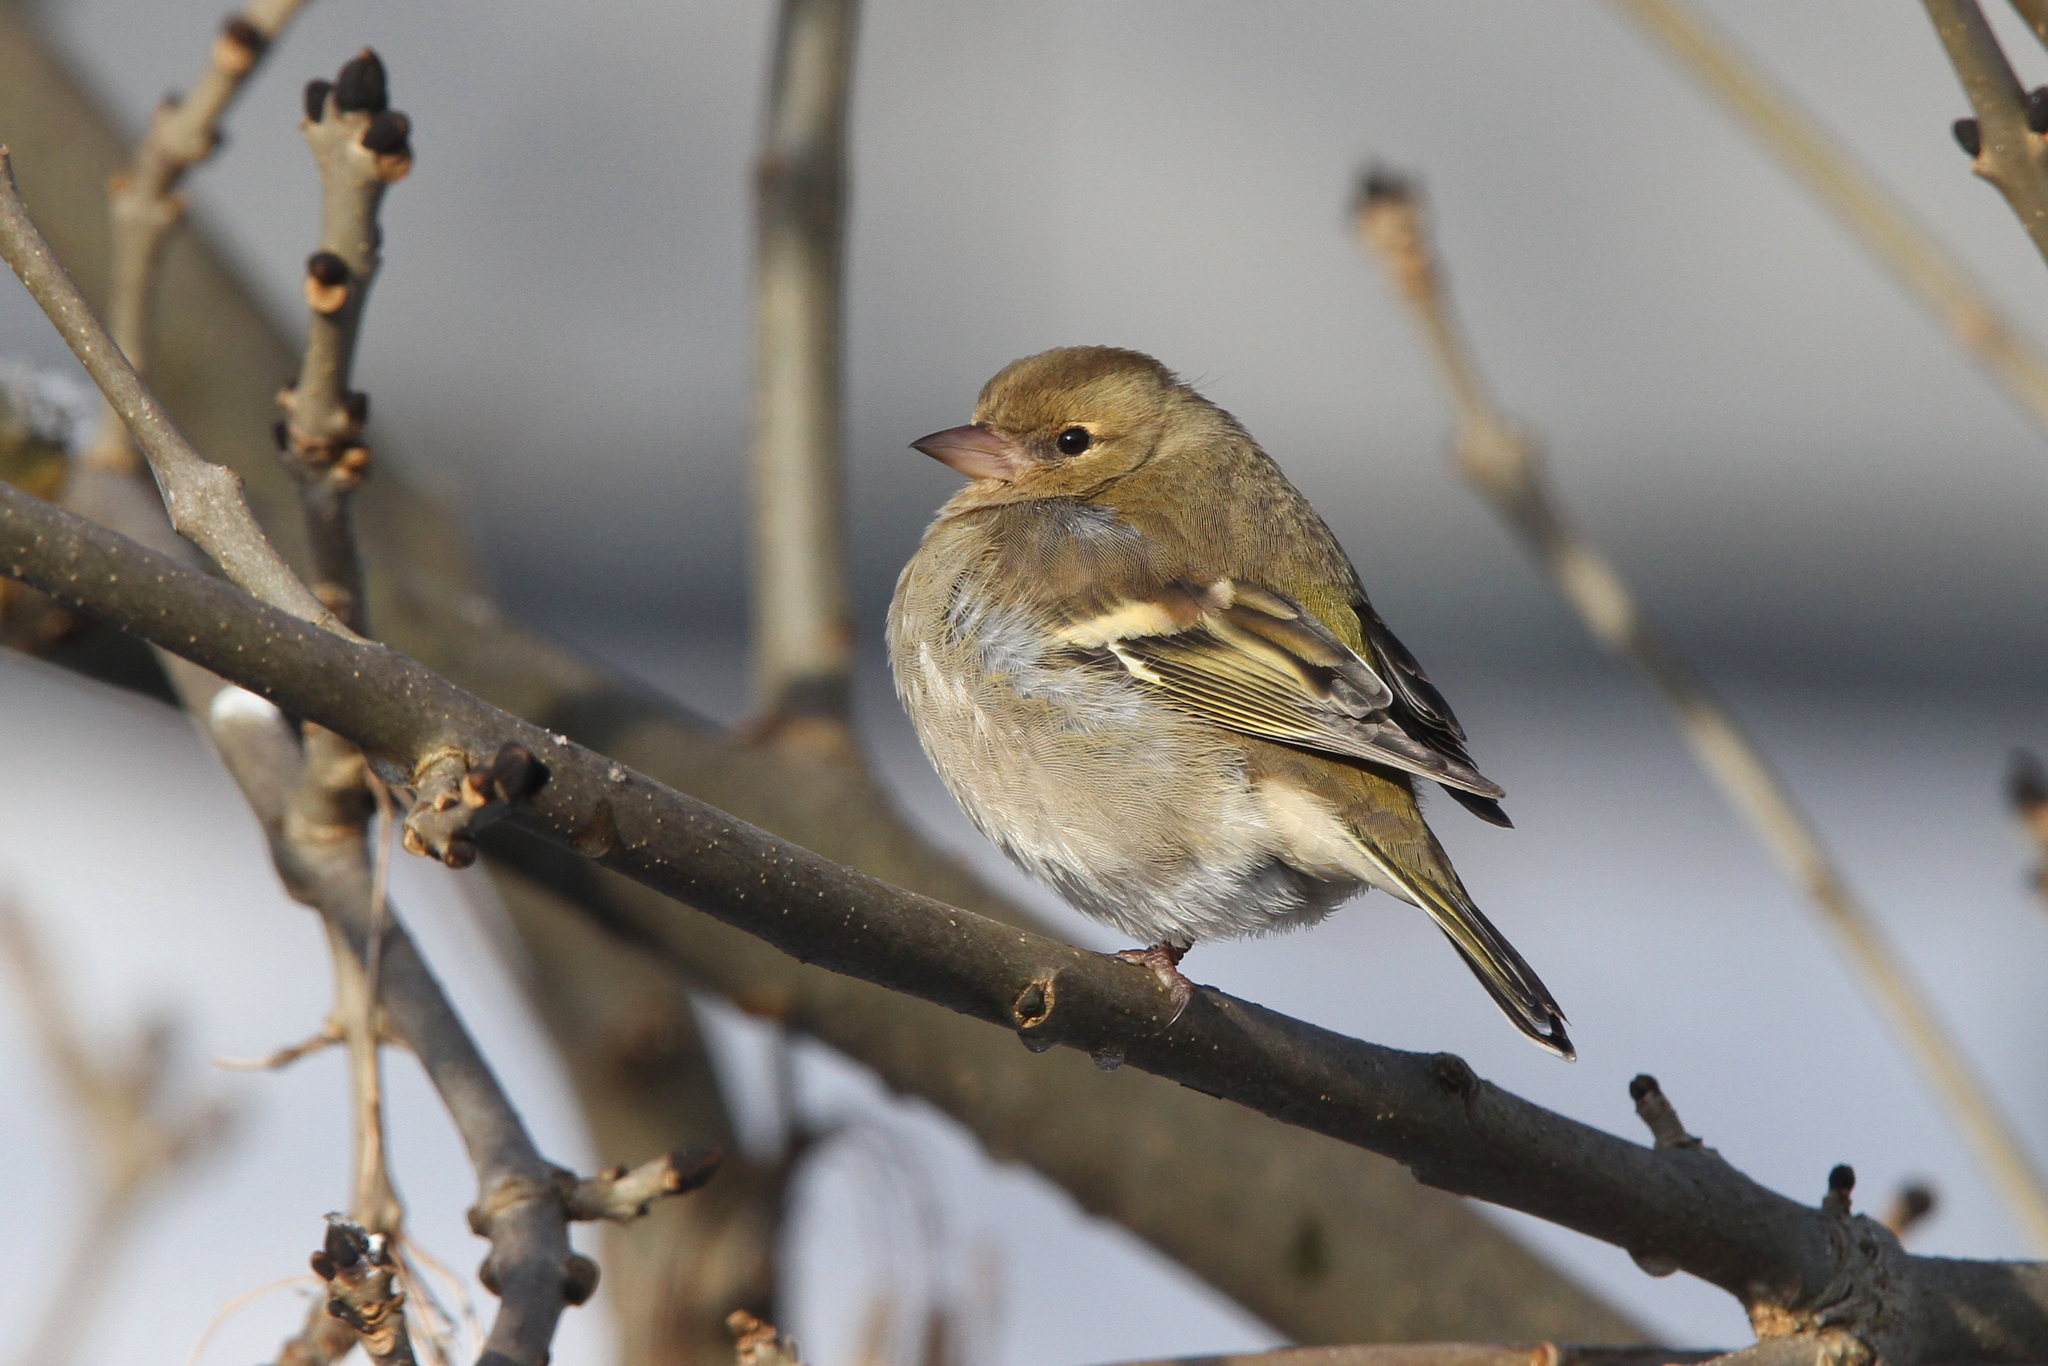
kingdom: Animalia
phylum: Chordata
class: Aves
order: Passeriformes
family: Fringillidae
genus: Fringilla
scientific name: Fringilla coelebs
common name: Common chaffinch
